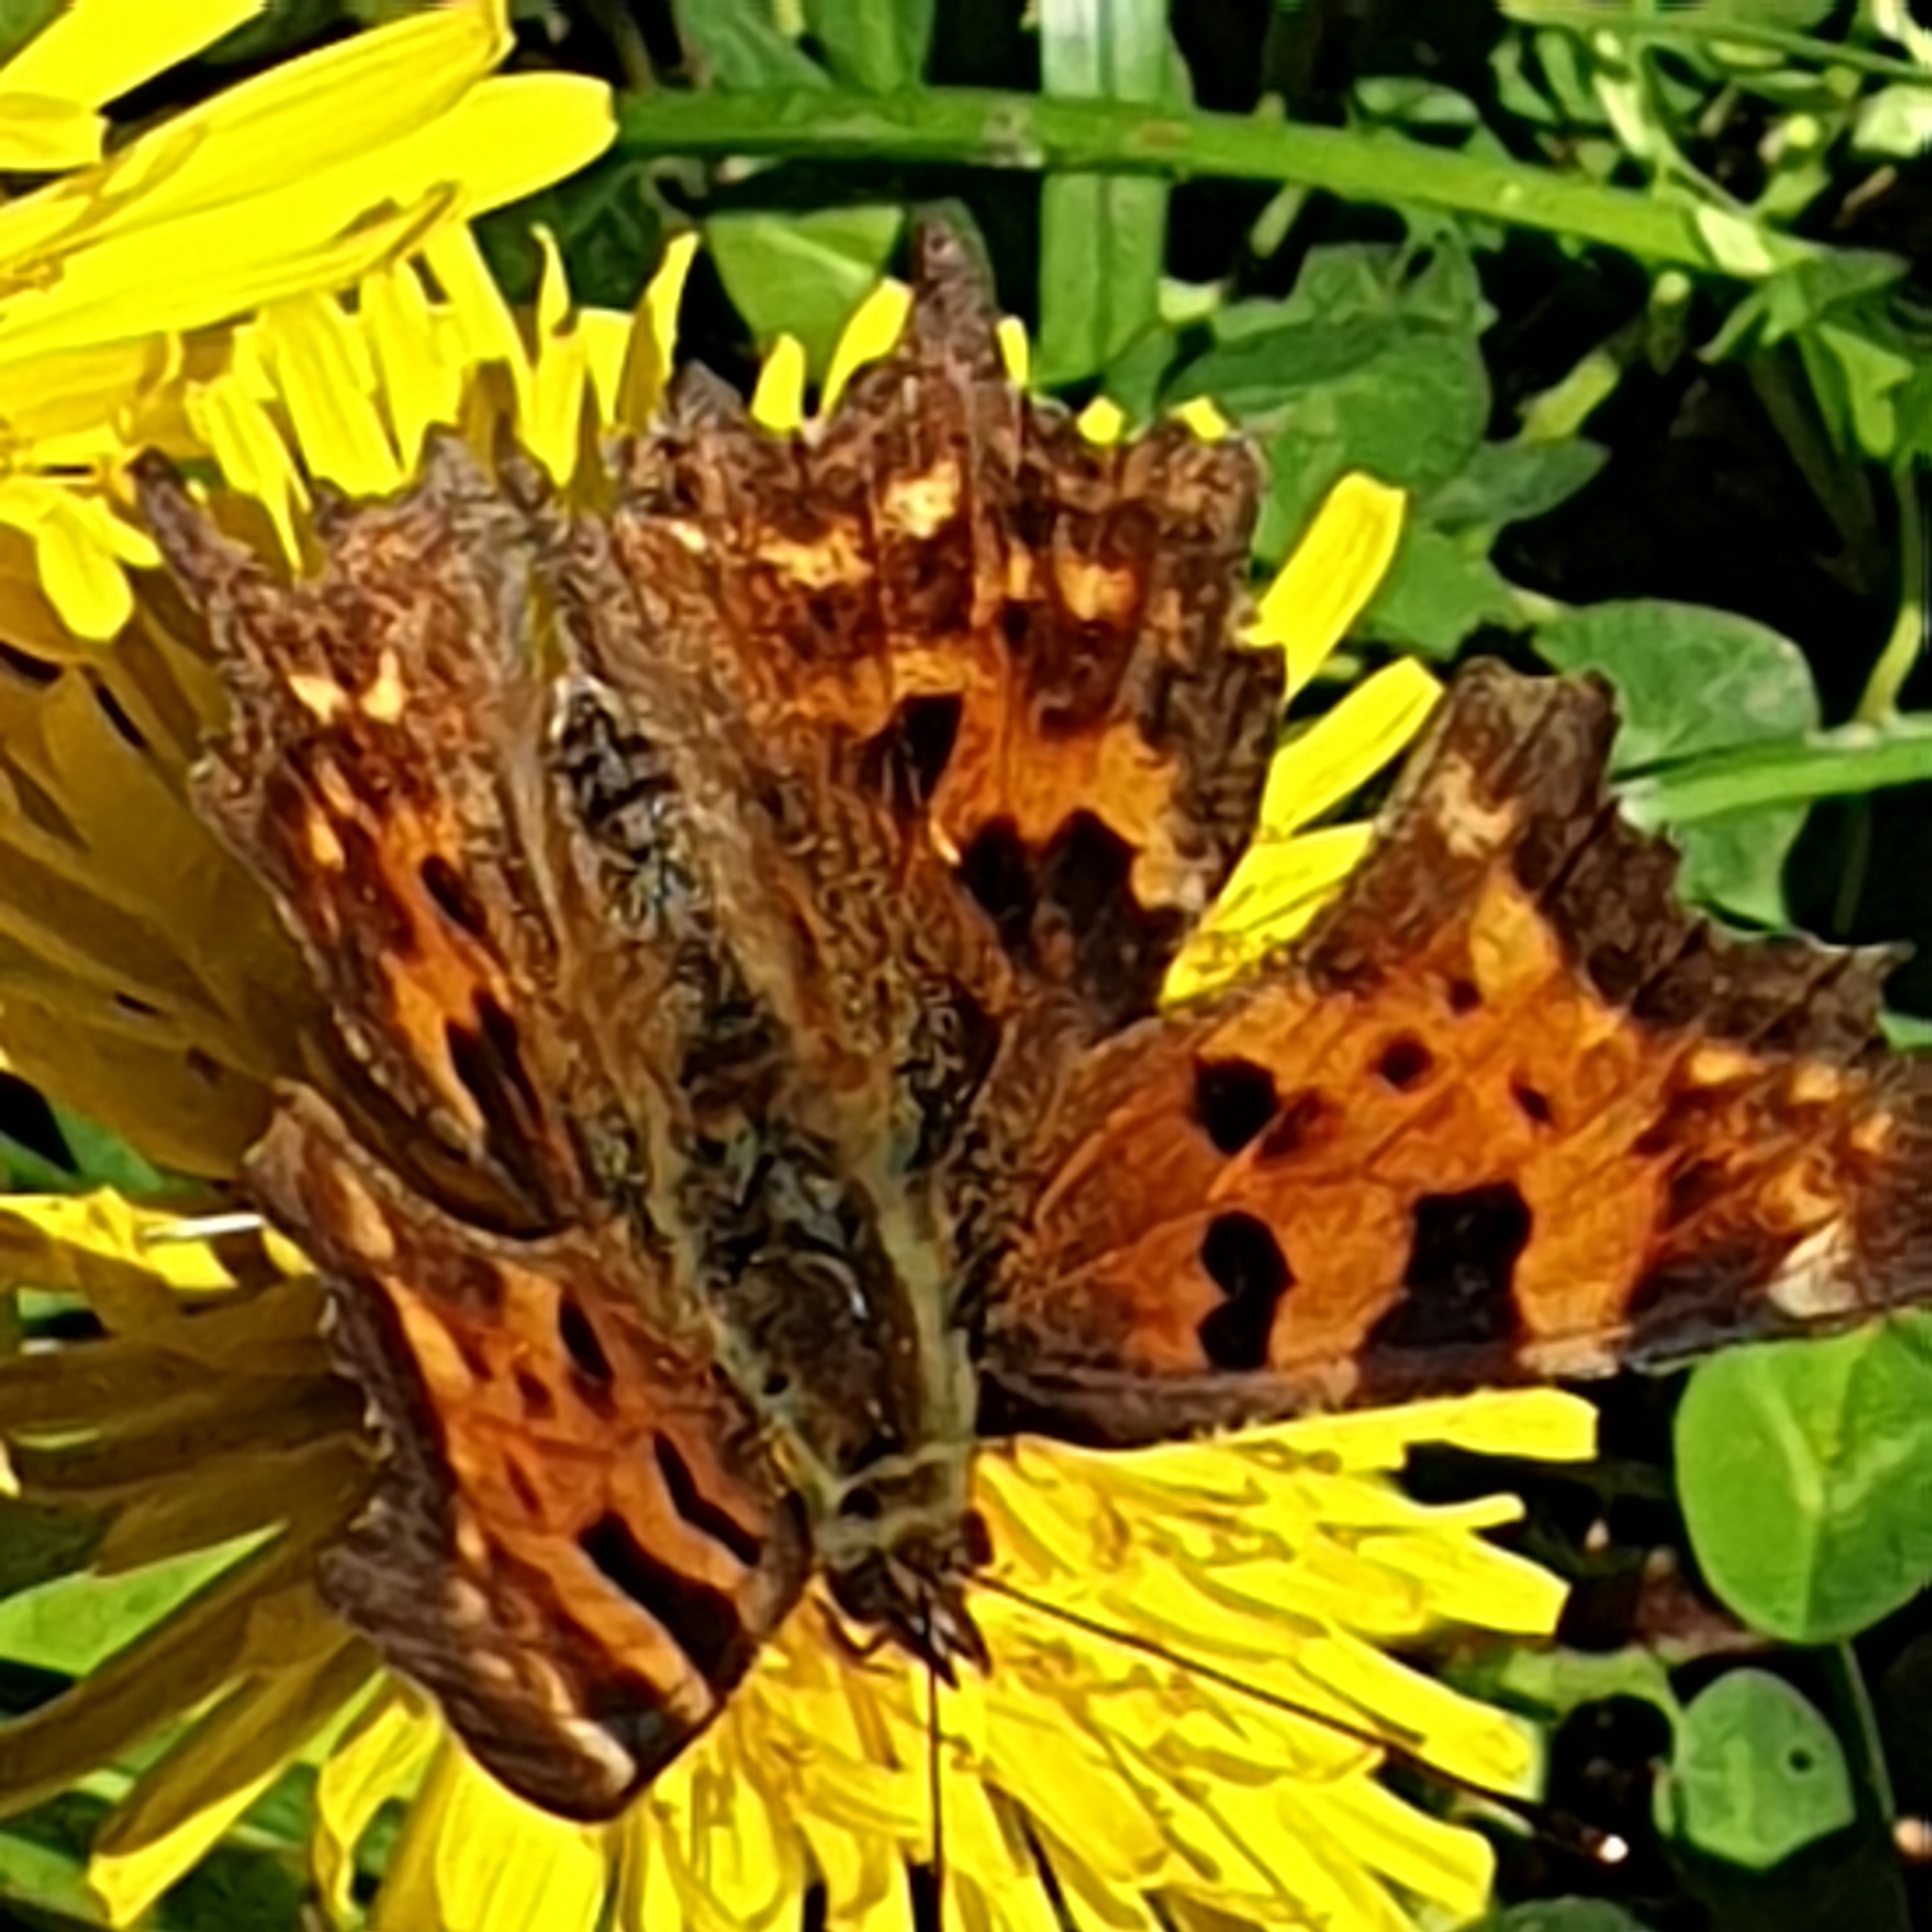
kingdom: Animalia
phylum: Arthropoda
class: Insecta
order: Lepidoptera
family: Nymphalidae
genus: Polygonia
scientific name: Polygonia c-album
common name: Comma
